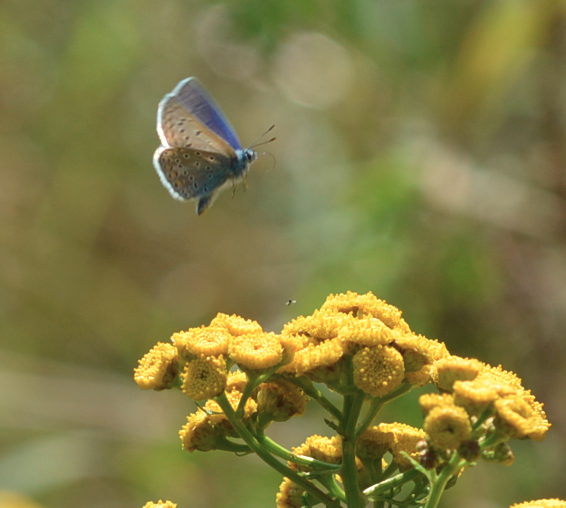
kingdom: Animalia
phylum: Arthropoda
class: Insecta
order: Lepidoptera
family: Lycaenidae
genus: Polyommatus
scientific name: Polyommatus icarus
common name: Common blue
